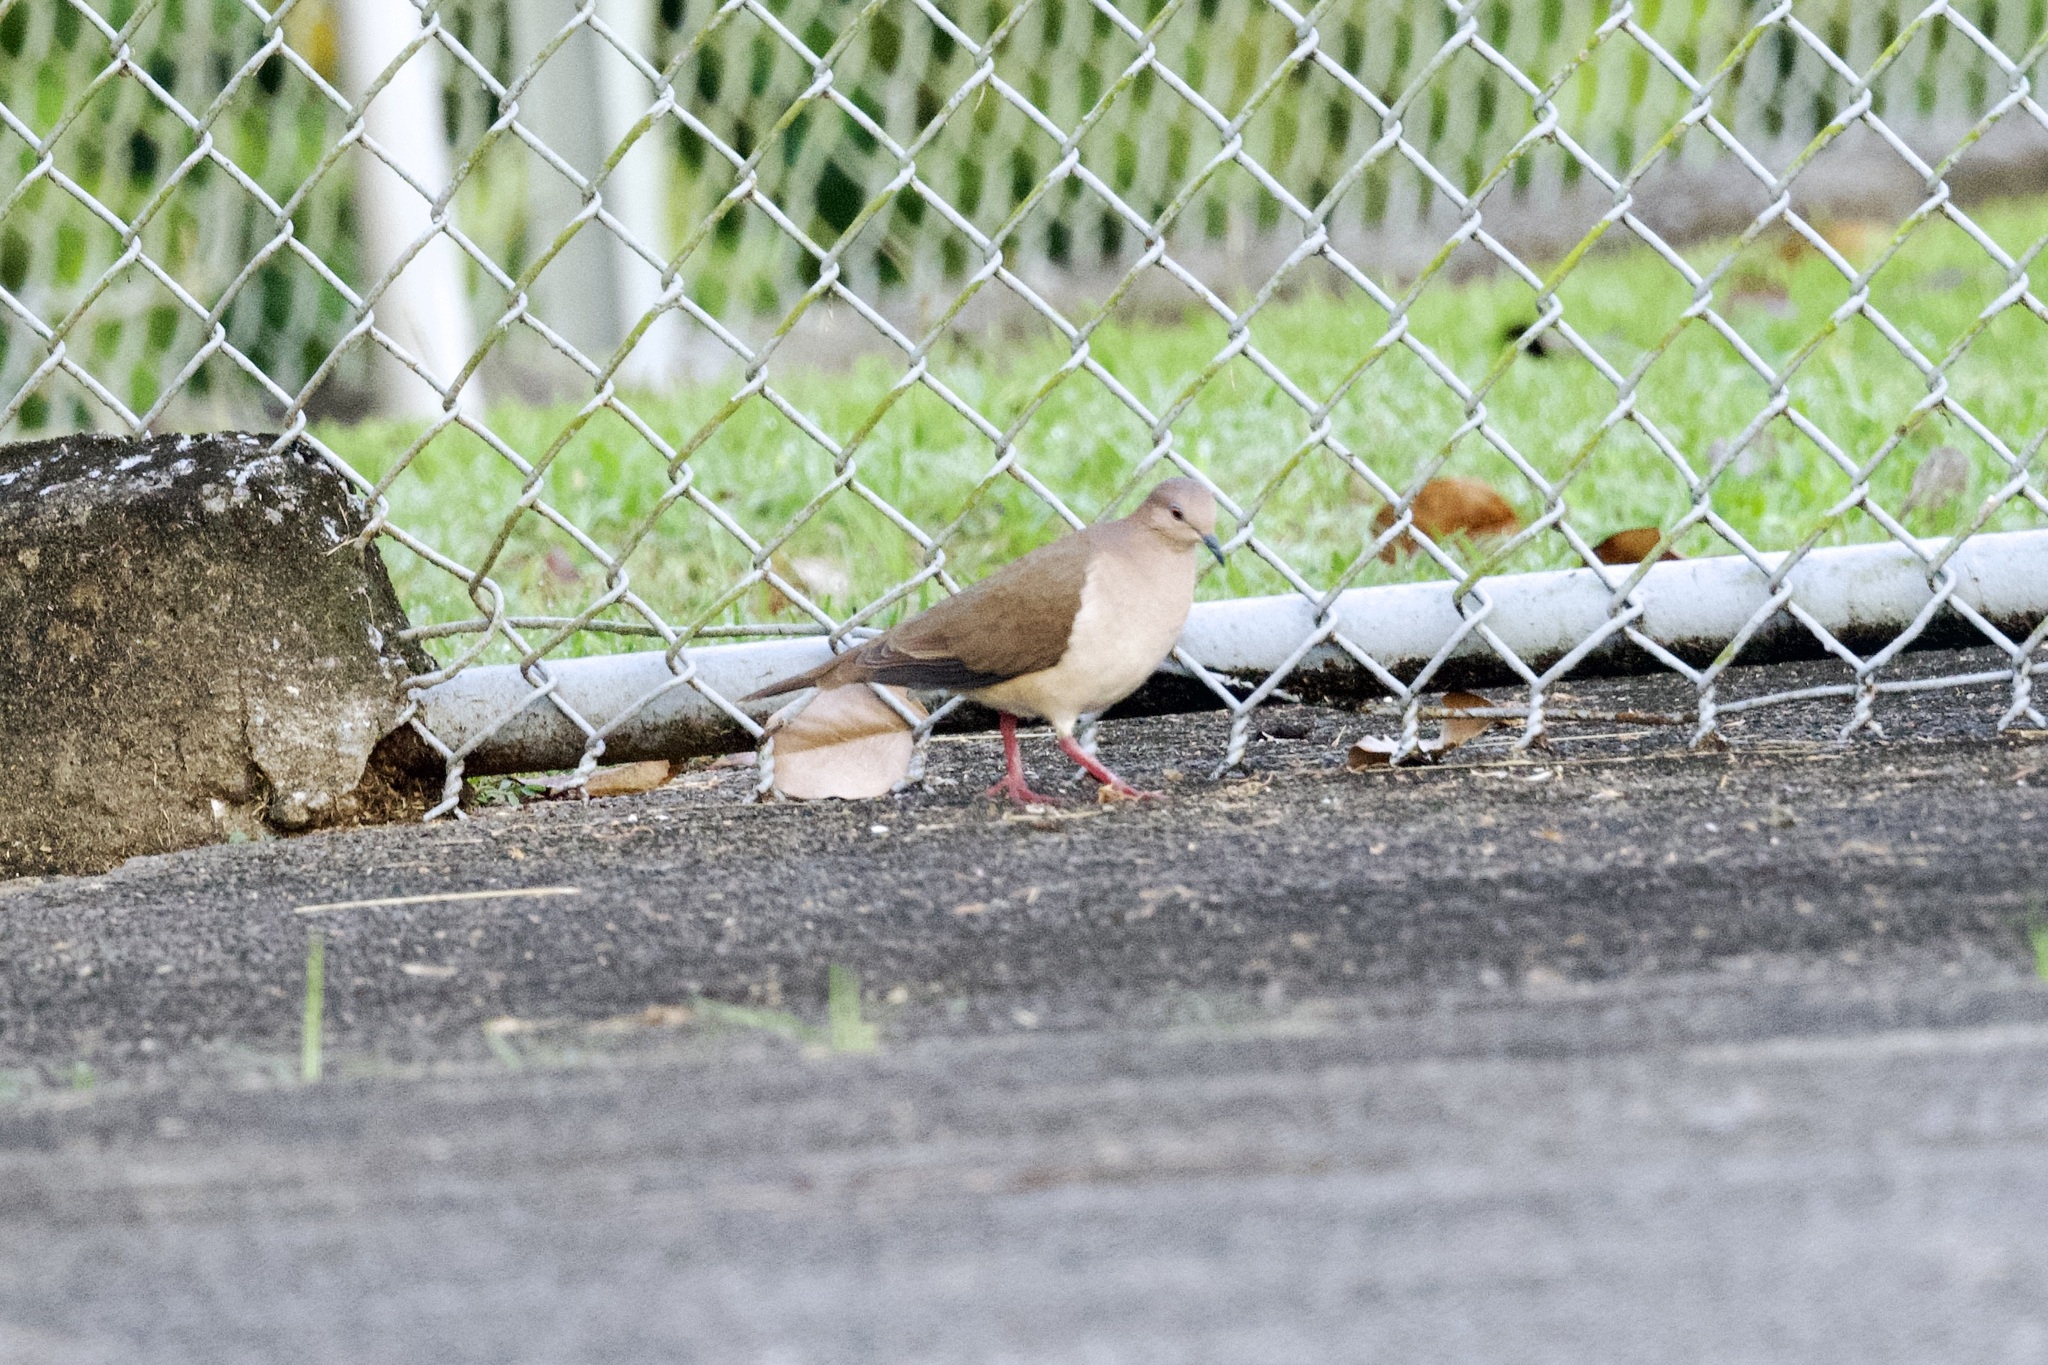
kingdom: Animalia
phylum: Chordata
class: Aves
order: Columbiformes
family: Columbidae
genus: Leptotila
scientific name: Leptotila verreauxi
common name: White-tipped dove
